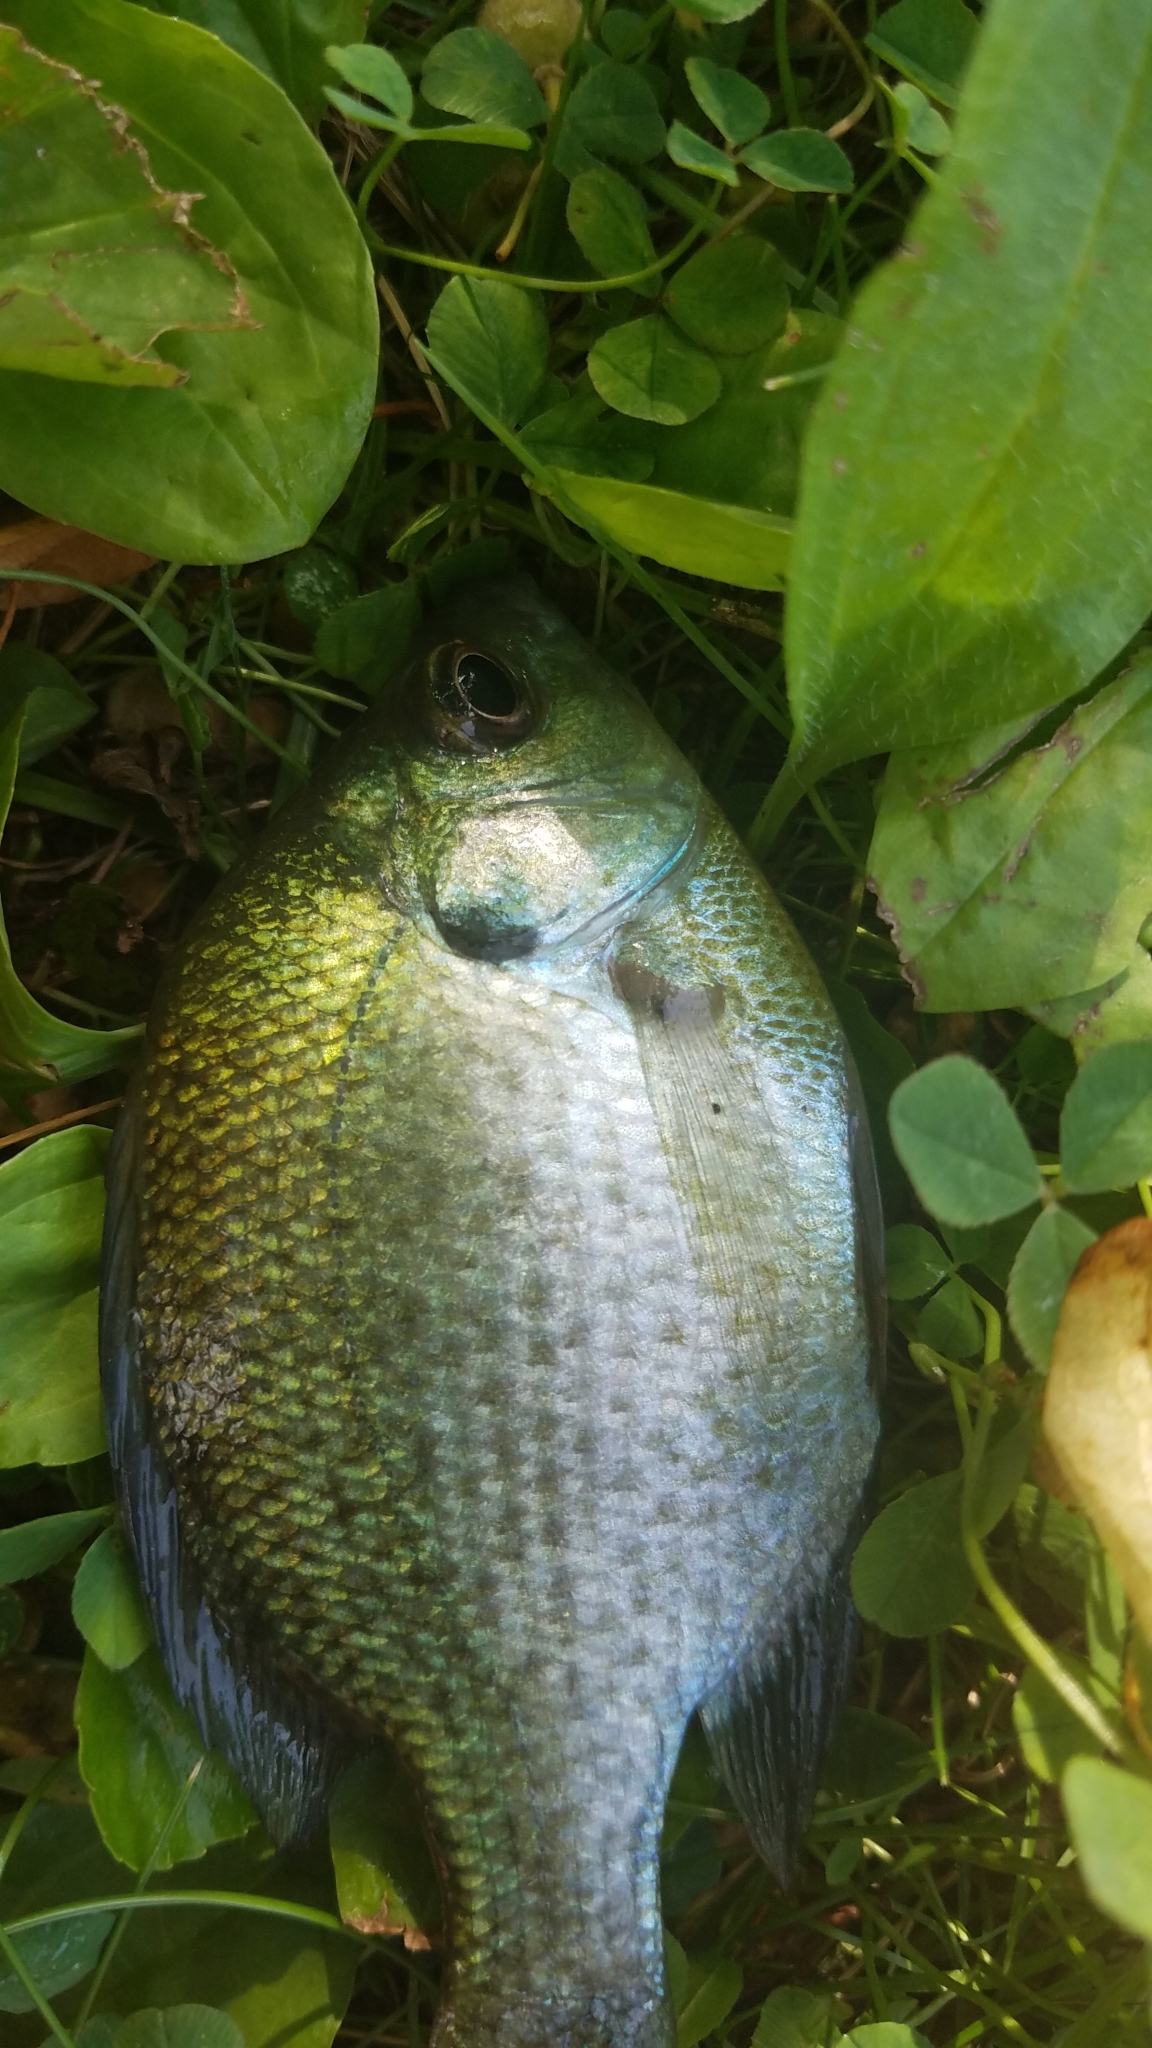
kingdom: Animalia
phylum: Chordata
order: Perciformes
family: Centrarchidae
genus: Lepomis
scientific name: Lepomis macrochirus
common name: Bluegill
